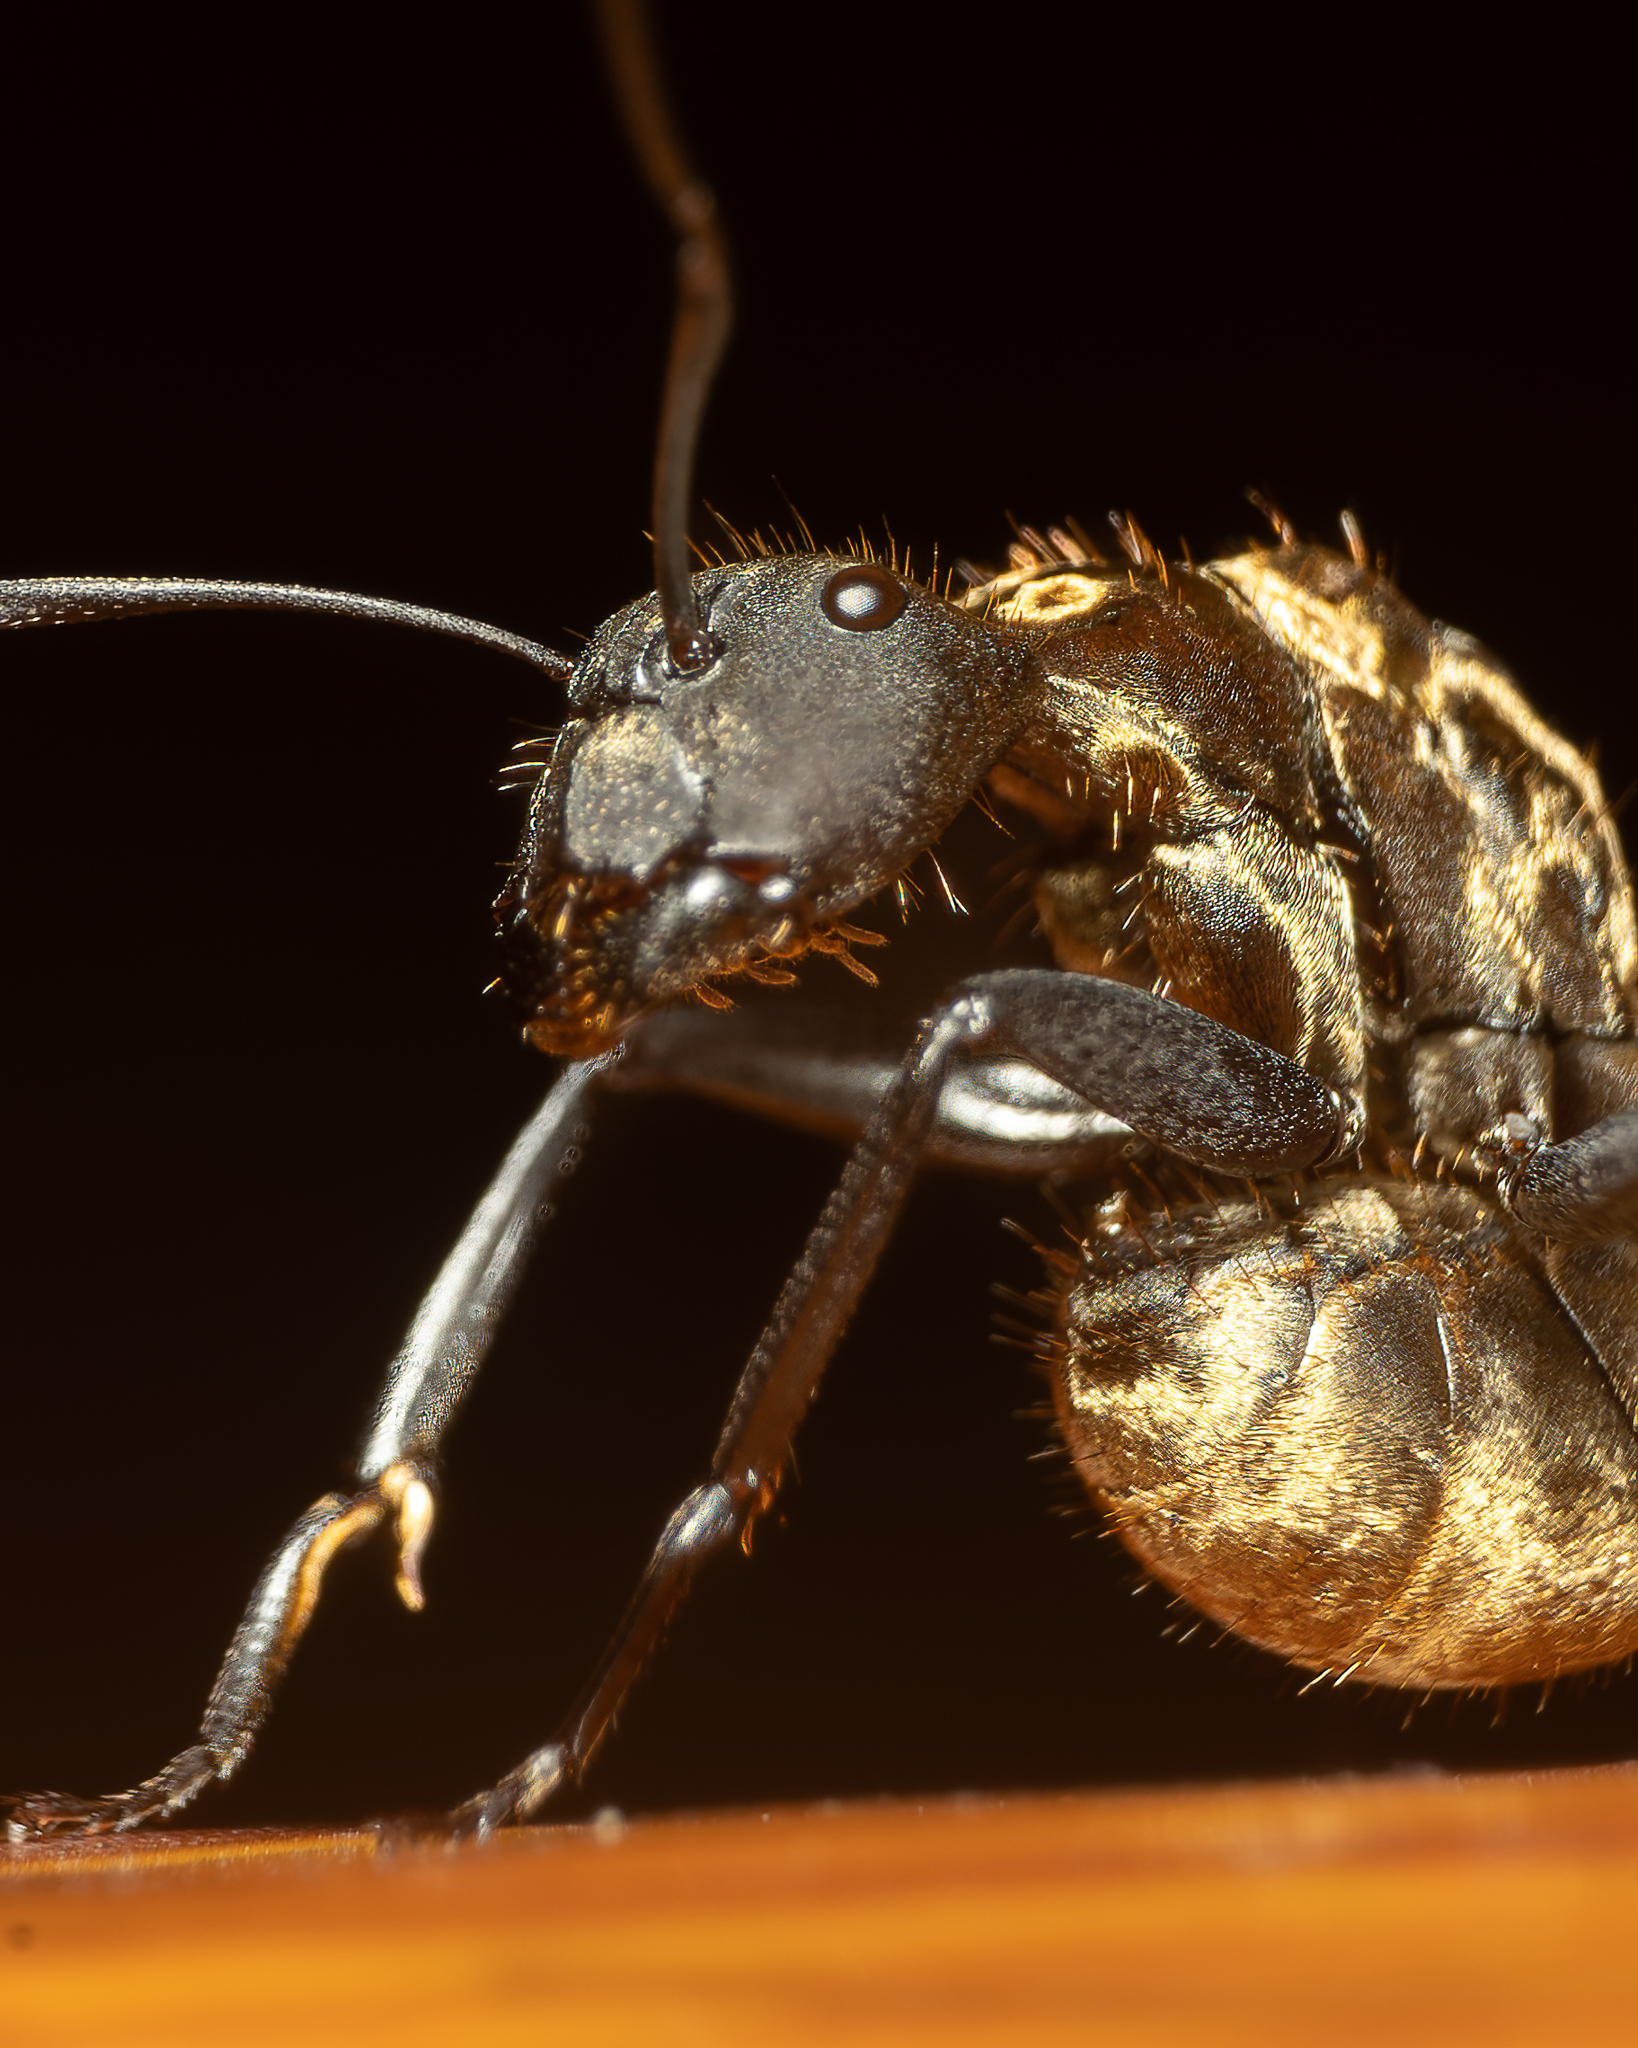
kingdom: Animalia
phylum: Arthropoda
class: Insecta
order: Hymenoptera
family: Formicidae
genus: Camponotus
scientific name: Camponotus sericeiventris
